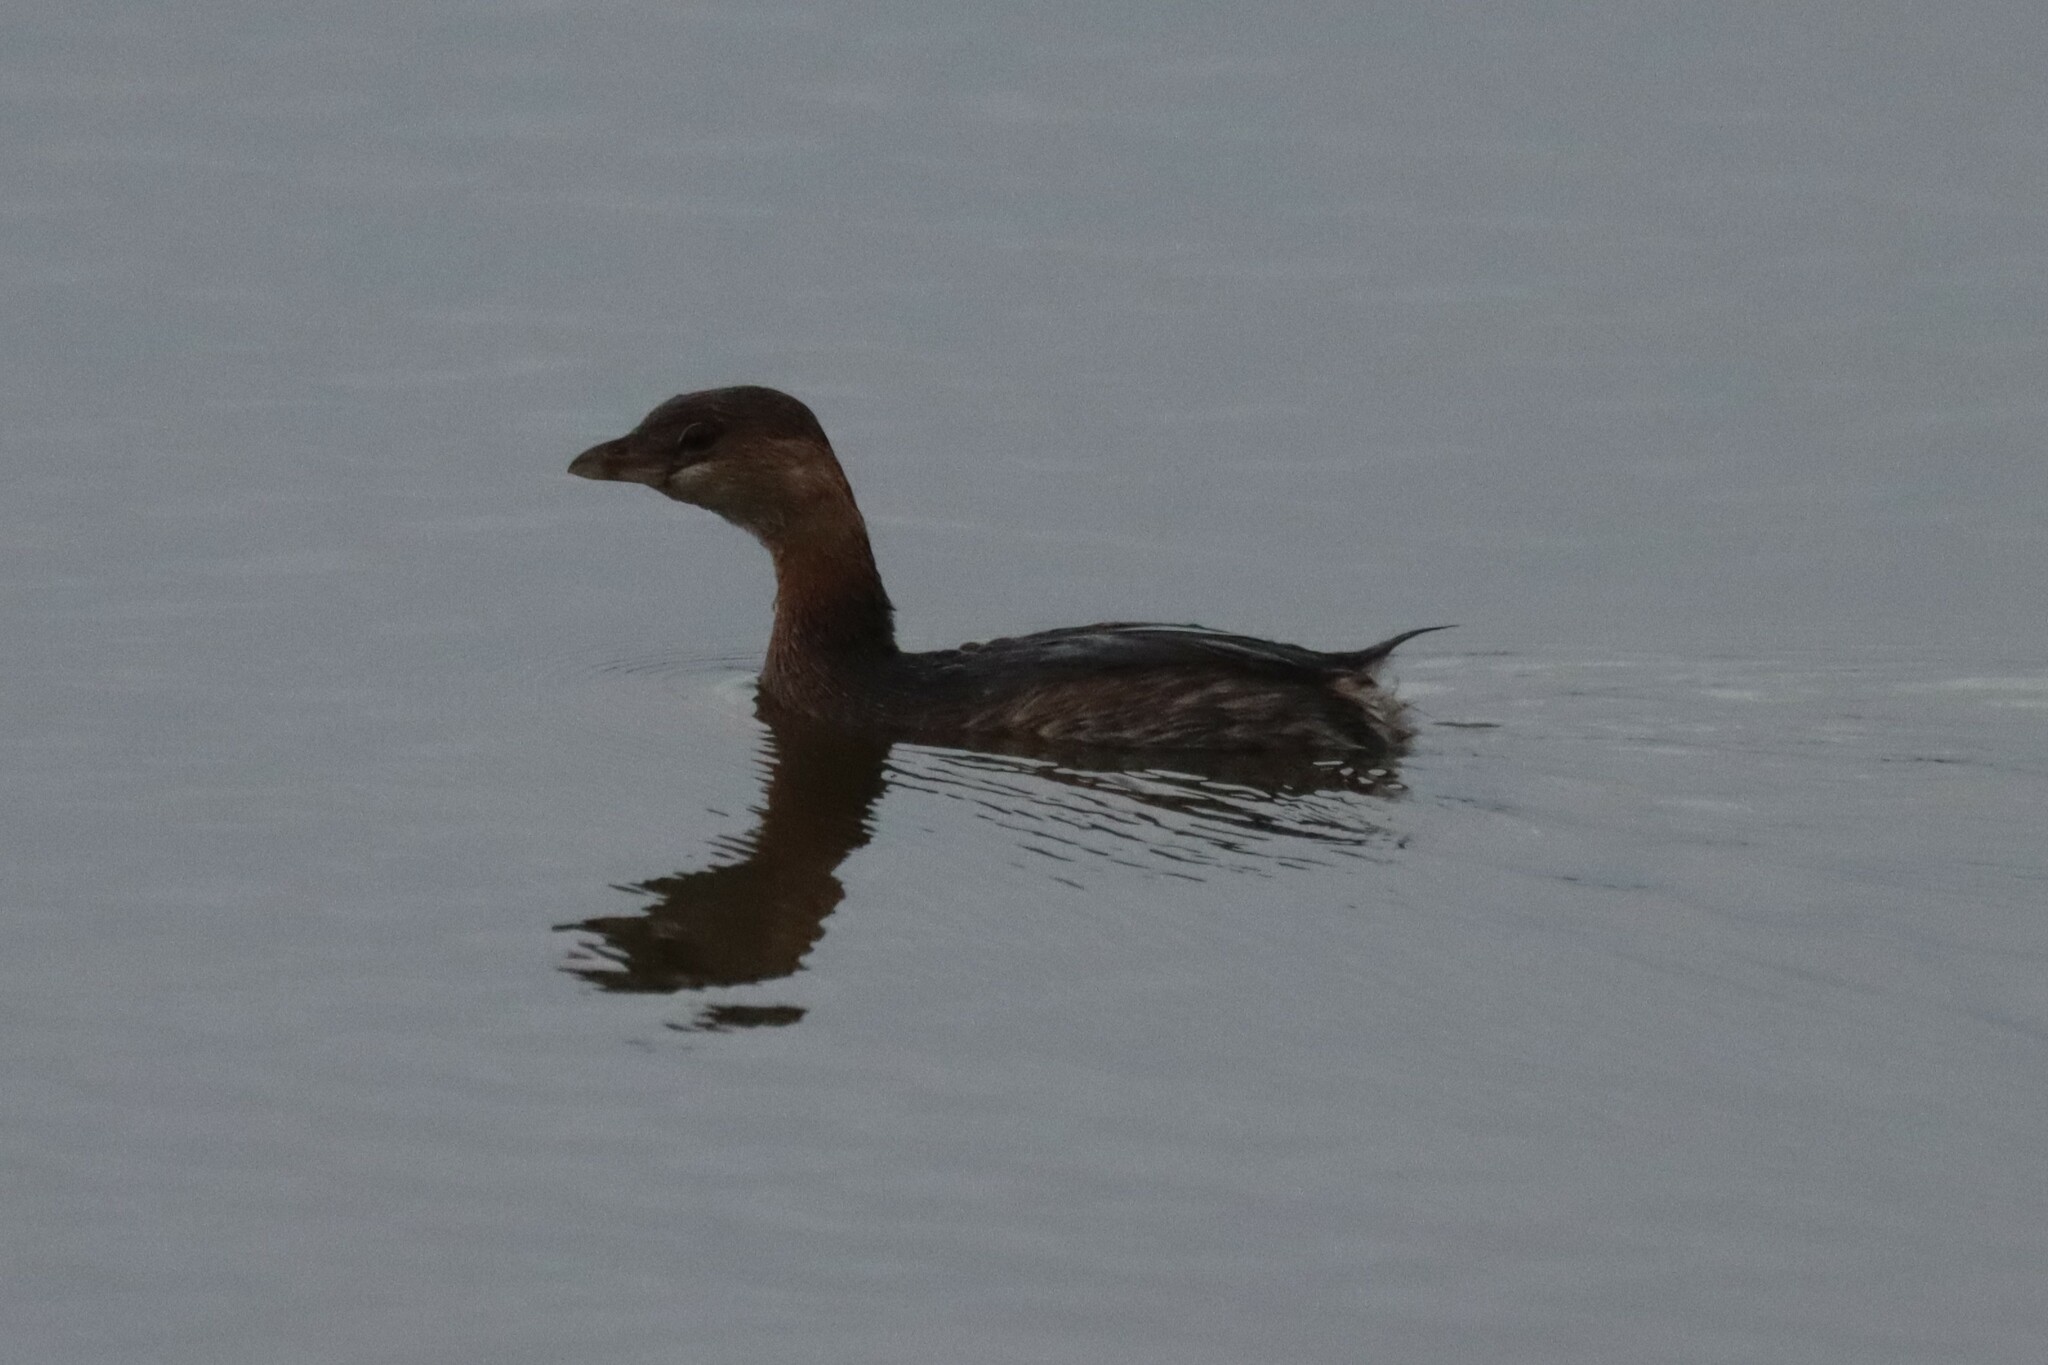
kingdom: Animalia
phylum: Chordata
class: Aves
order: Podicipediformes
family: Podicipedidae
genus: Podilymbus
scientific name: Podilymbus podiceps
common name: Pied-billed grebe
